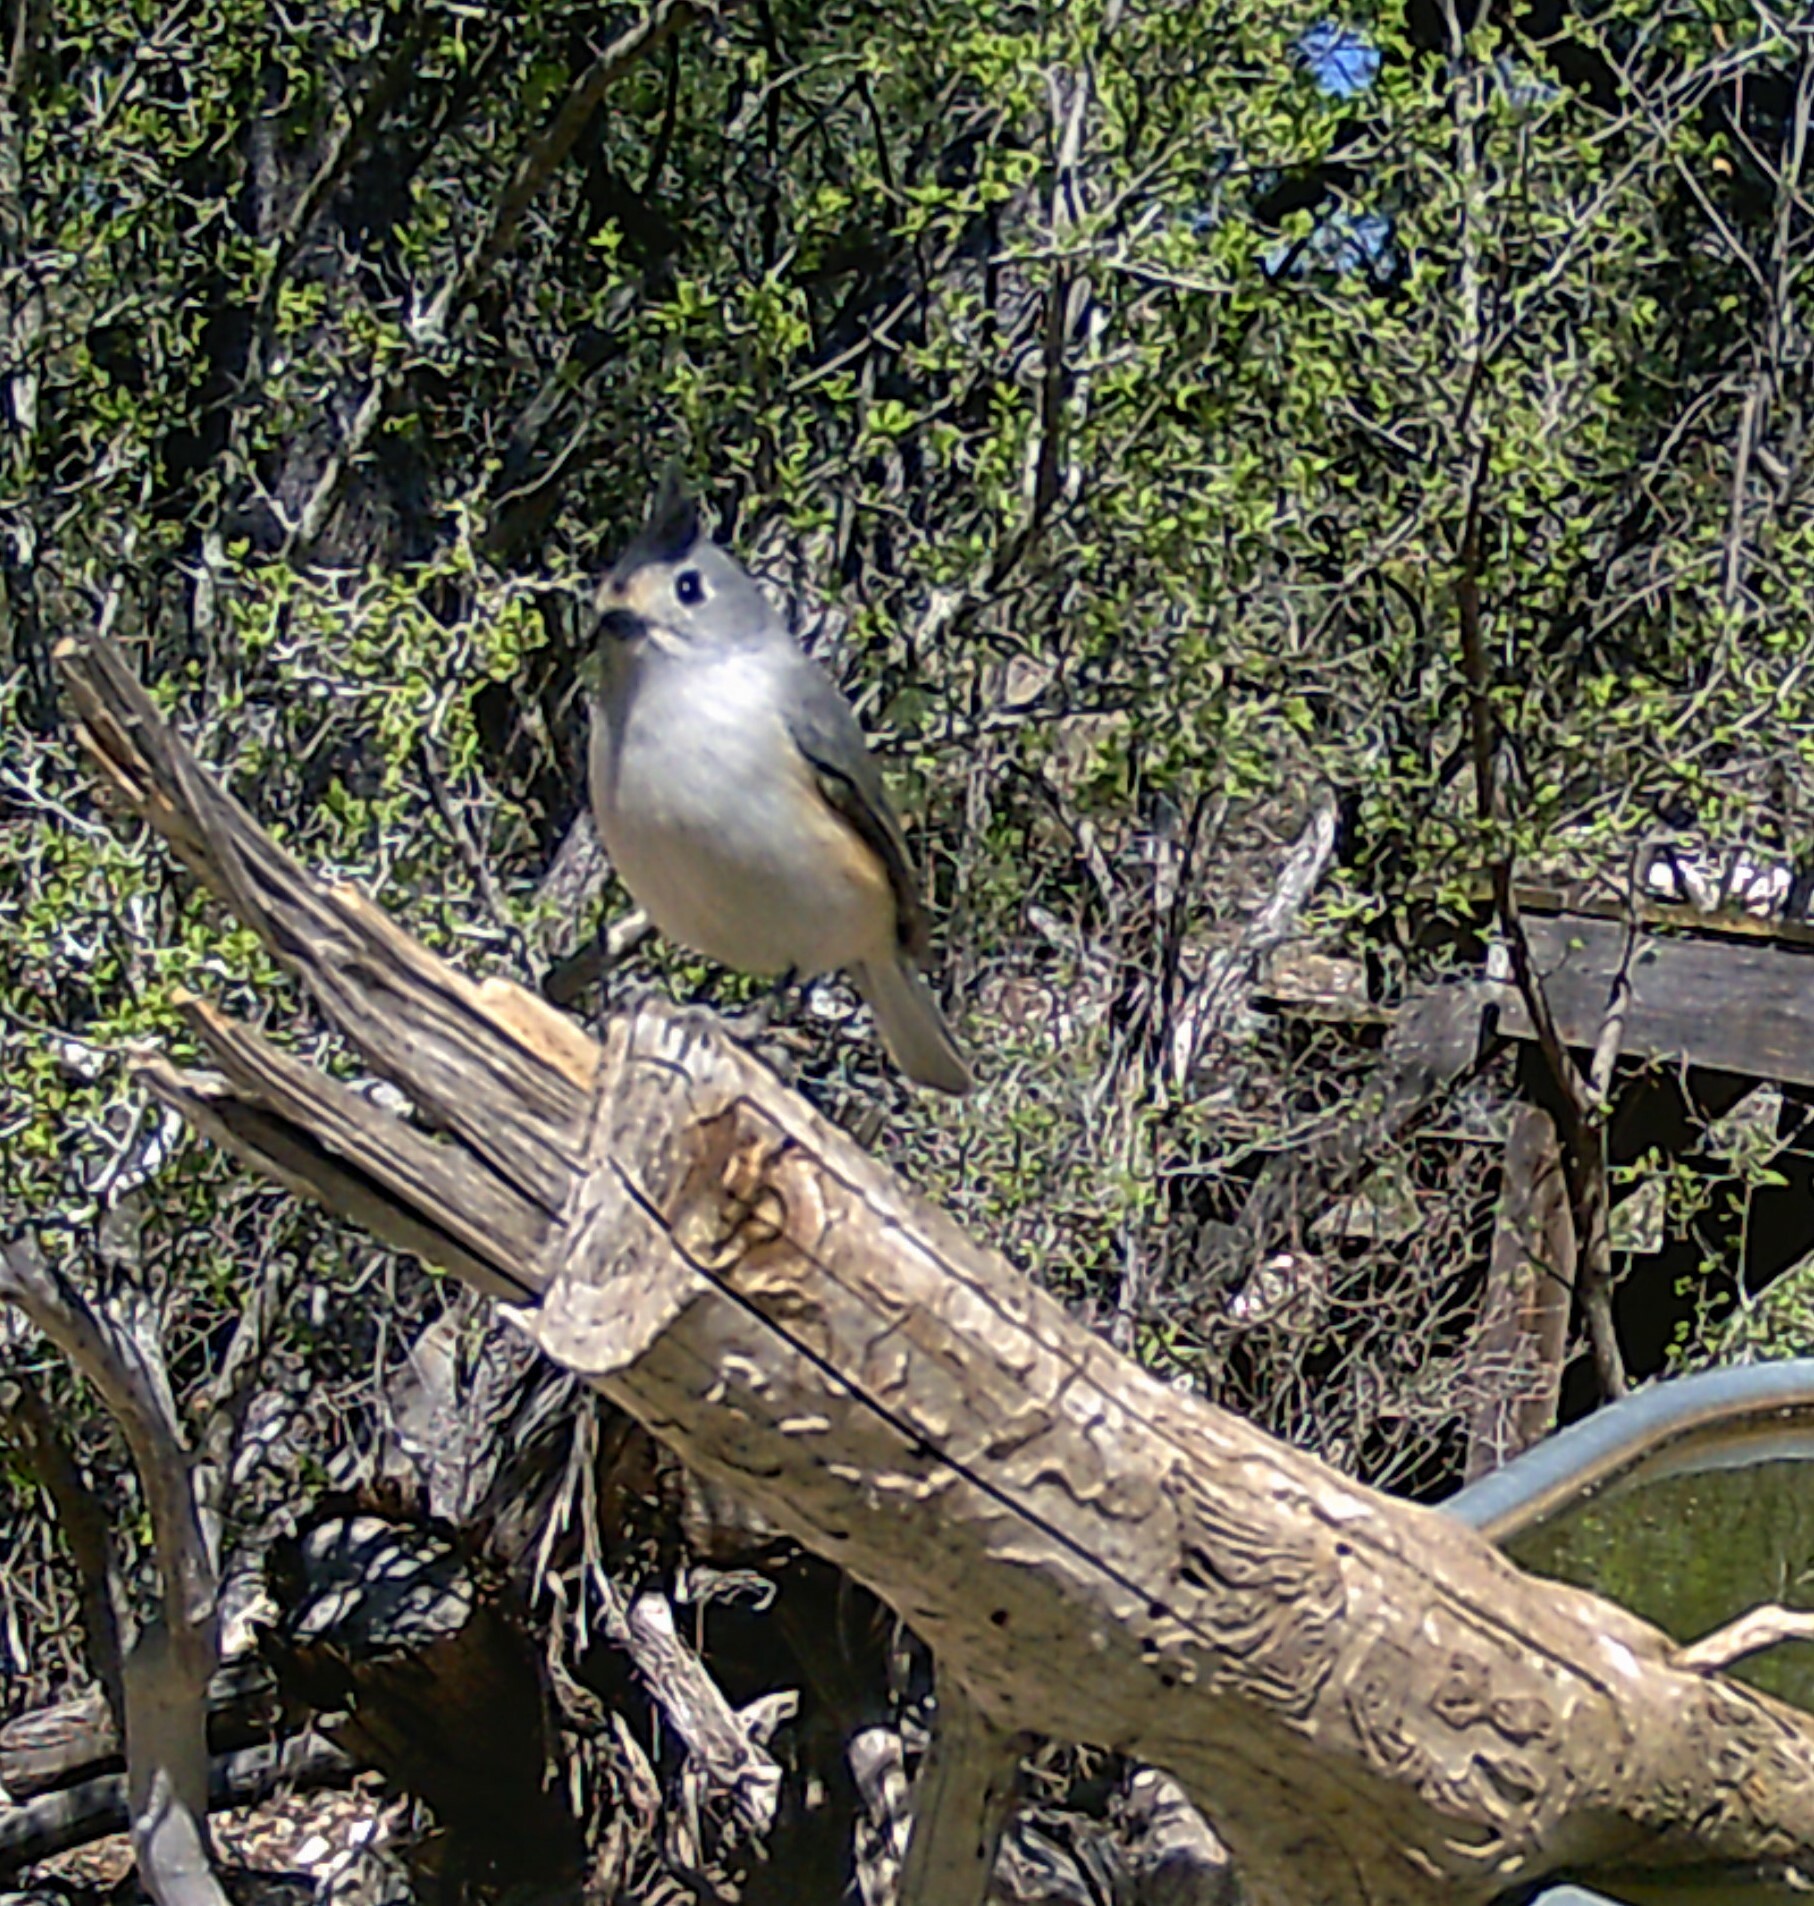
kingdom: Animalia
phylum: Chordata
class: Aves
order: Passeriformes
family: Paridae
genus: Baeolophus
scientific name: Baeolophus atricristatus
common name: Black-crested titmouse
